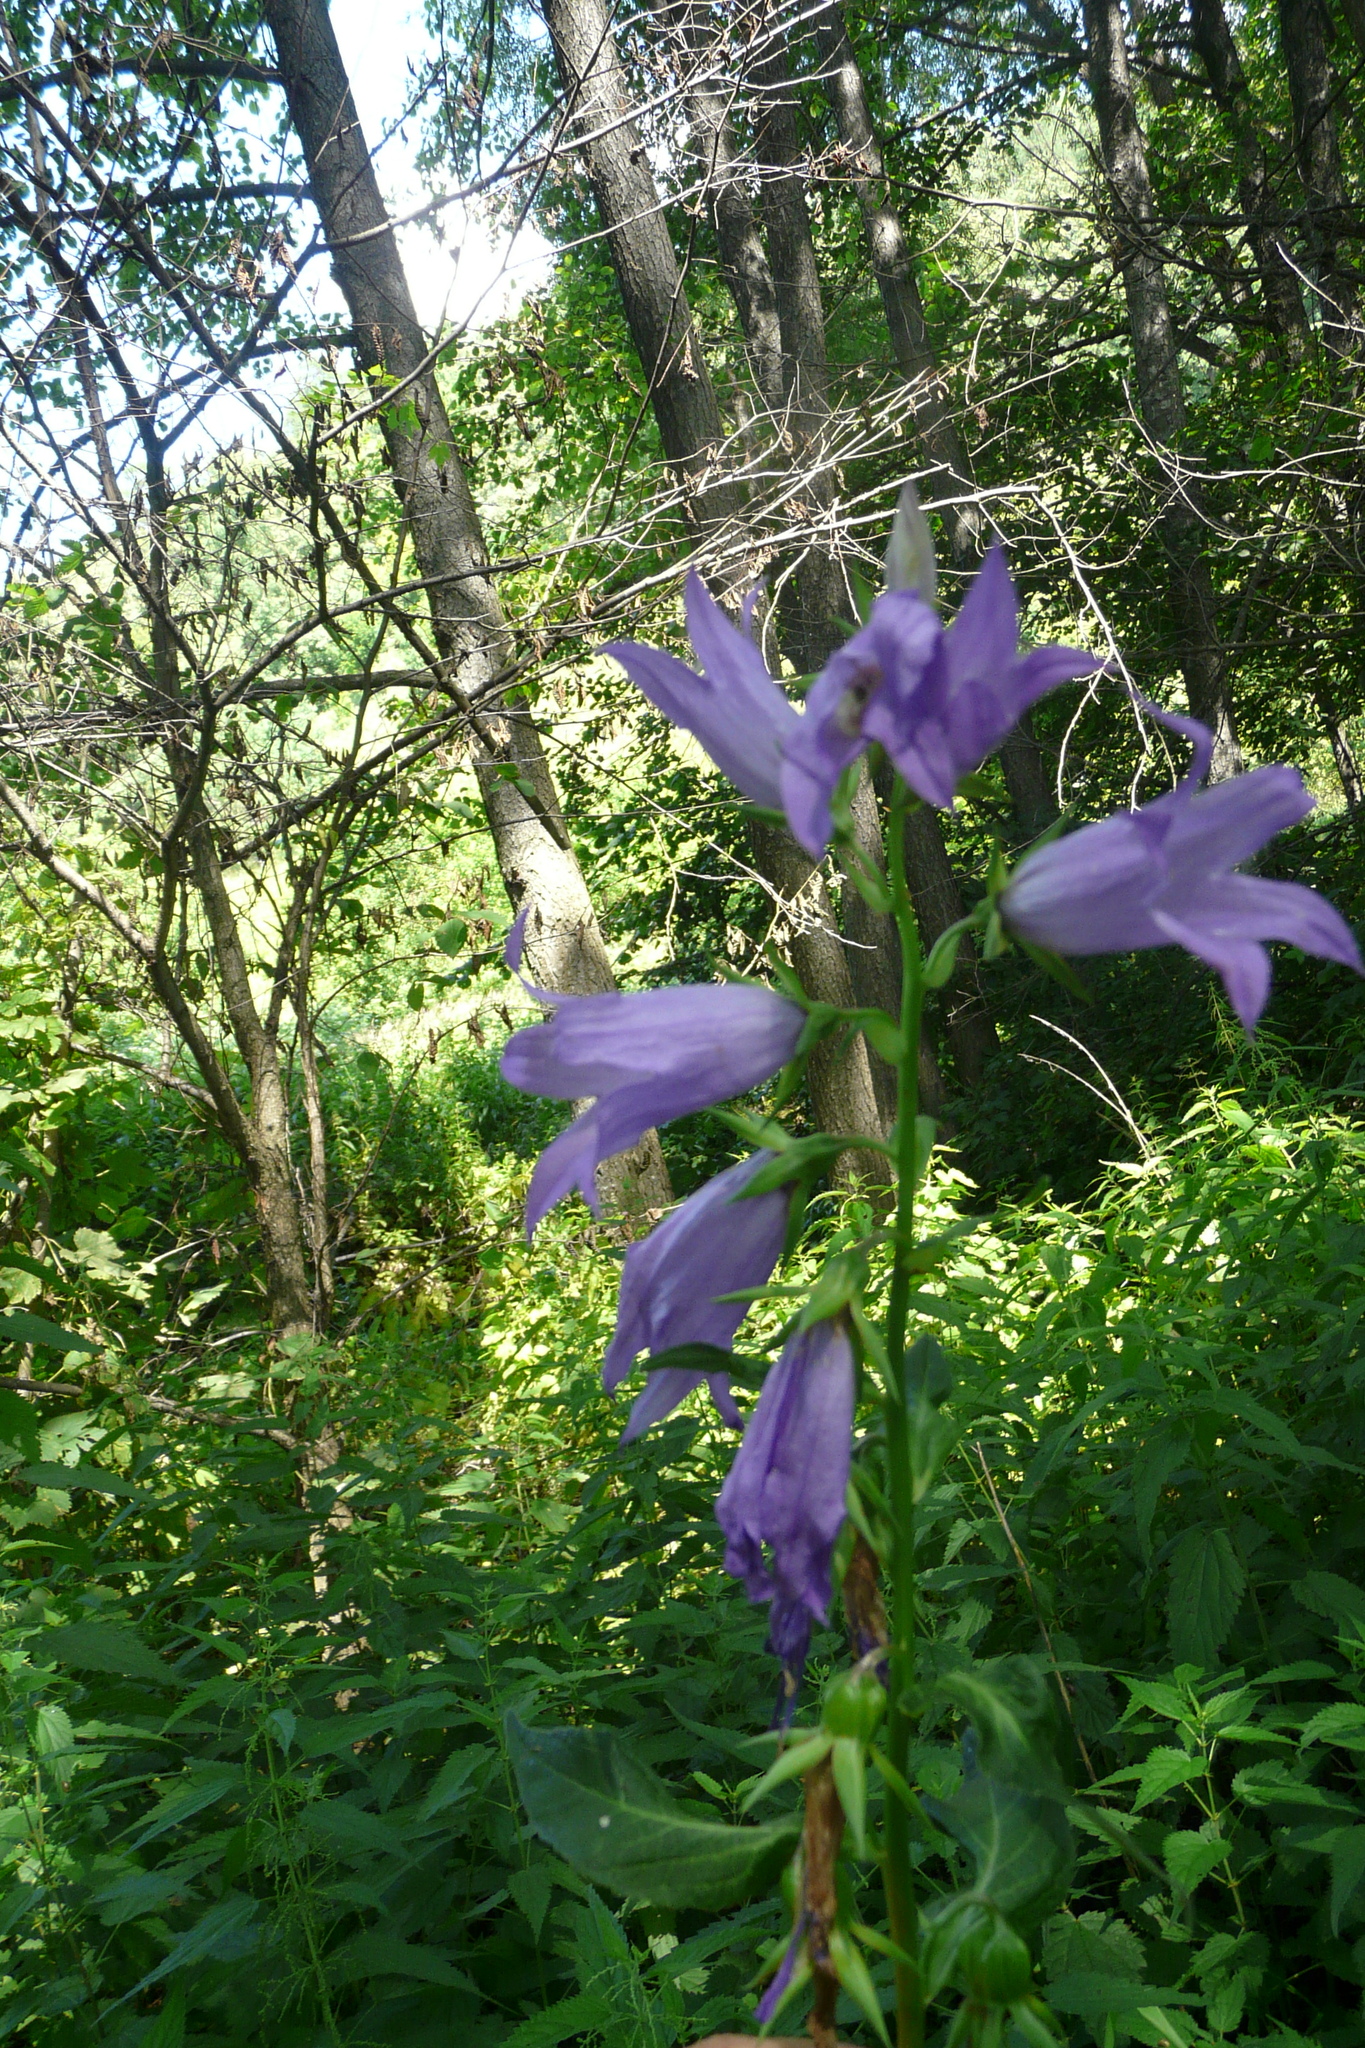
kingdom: Plantae
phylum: Tracheophyta
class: Magnoliopsida
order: Asterales
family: Campanulaceae
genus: Campanula
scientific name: Campanula latifolia
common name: Giant bellflower
